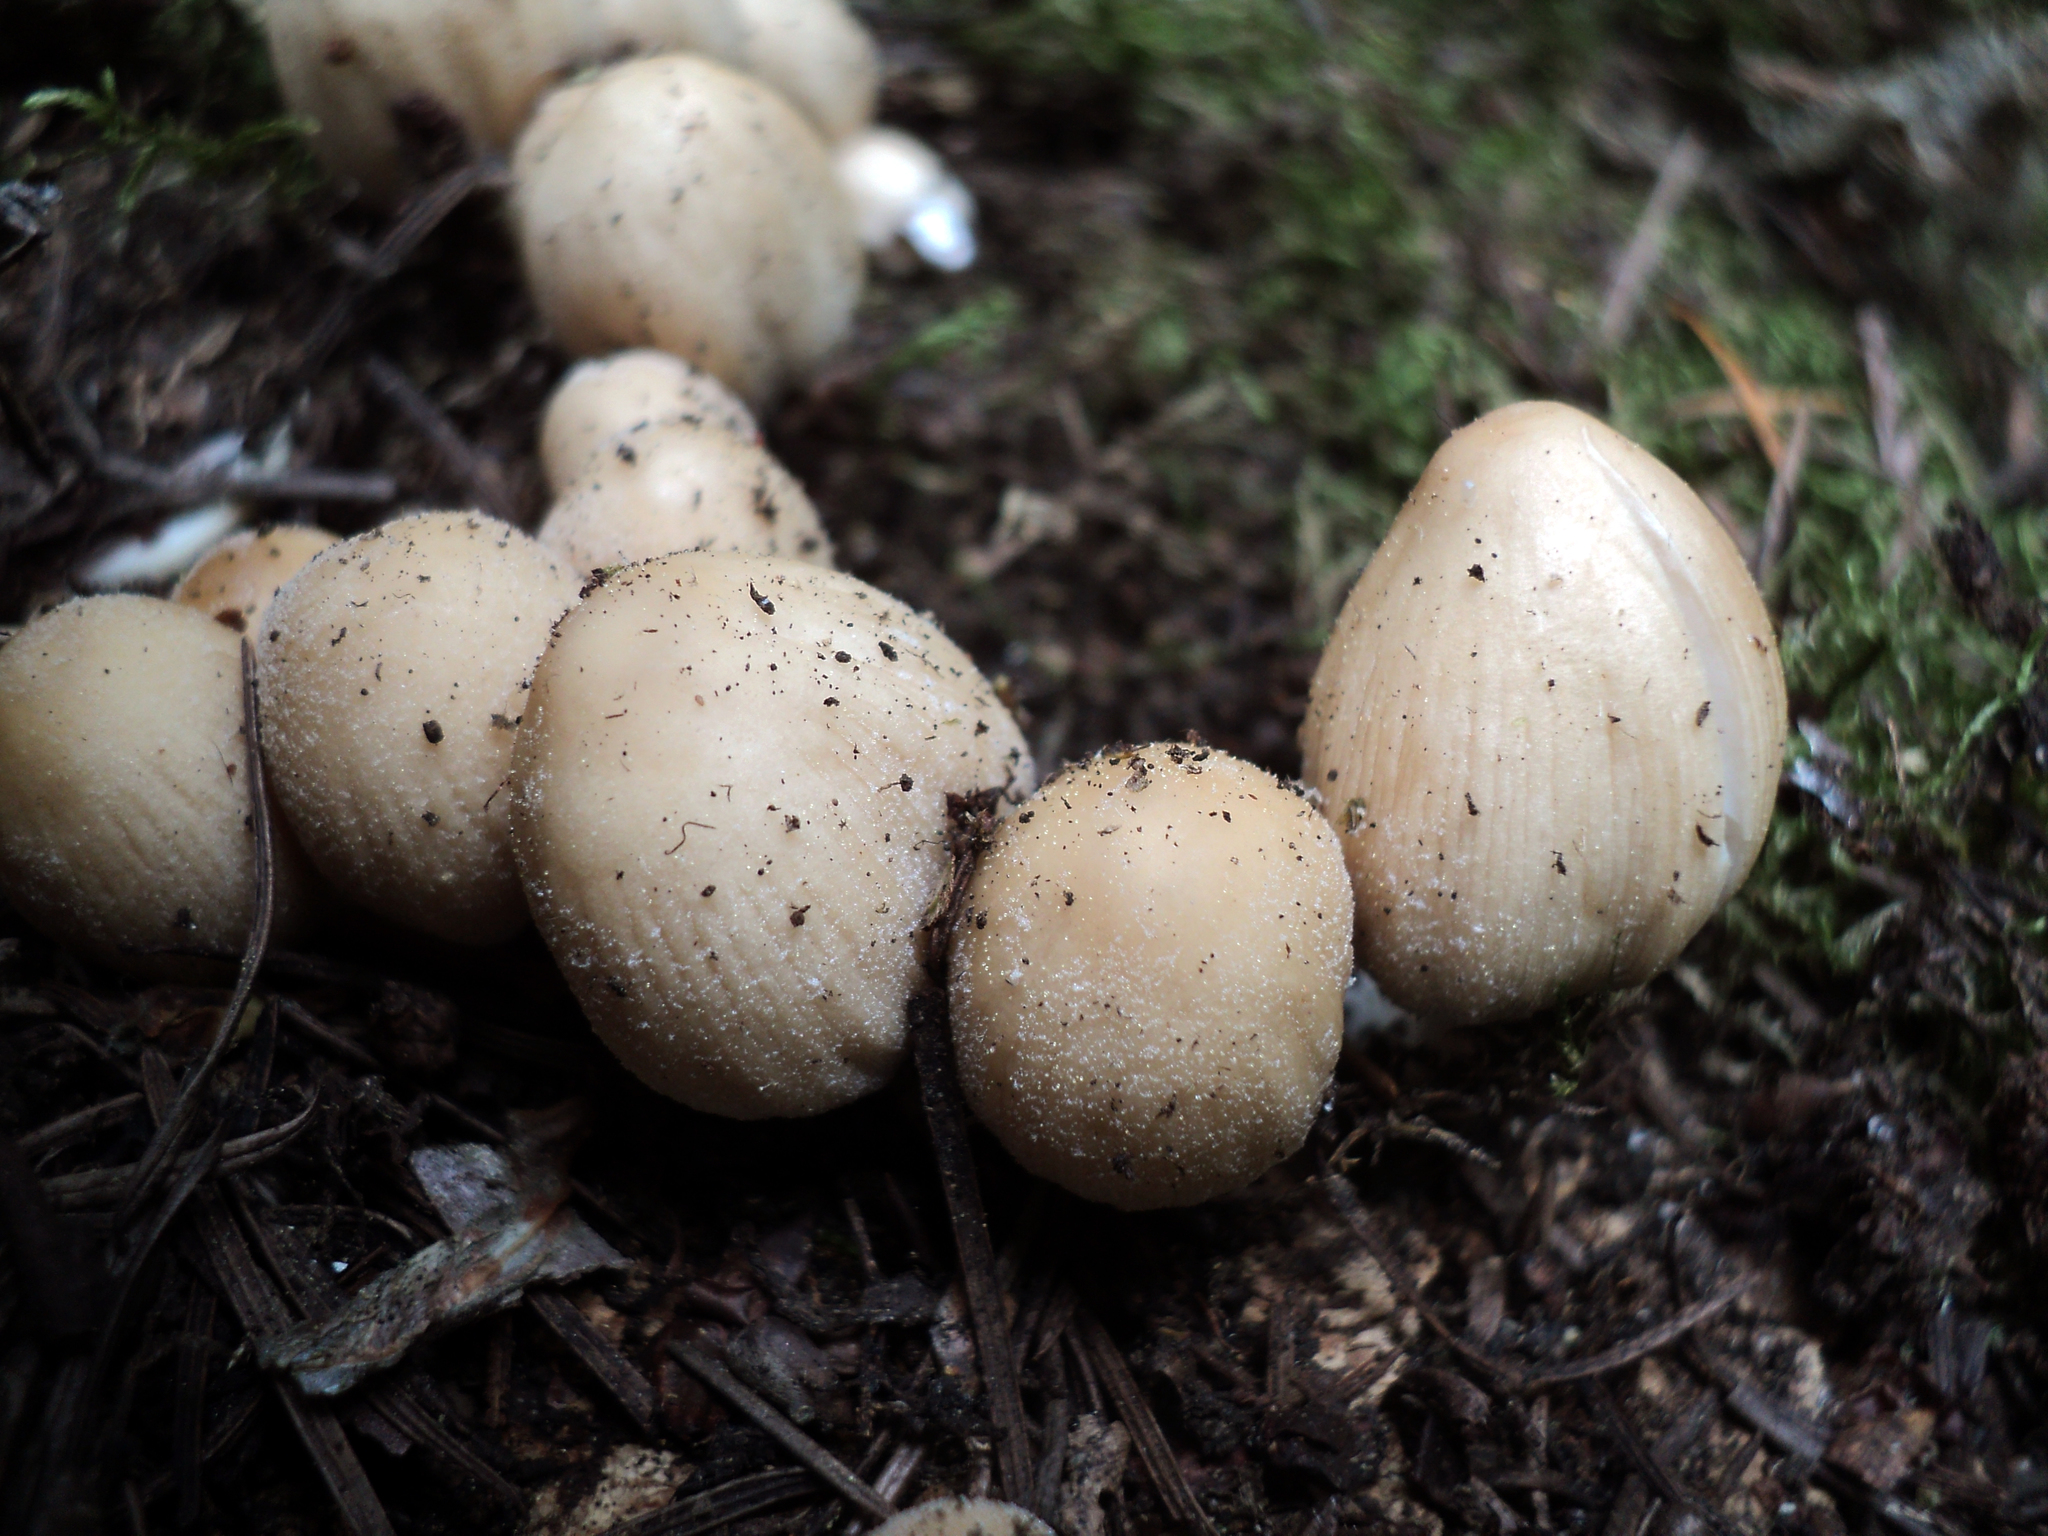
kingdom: Fungi
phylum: Basidiomycota
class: Agaricomycetes
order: Agaricales
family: Psathyrellaceae
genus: Coprinellus
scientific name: Coprinellus micaceus
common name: Glistening ink-cap
